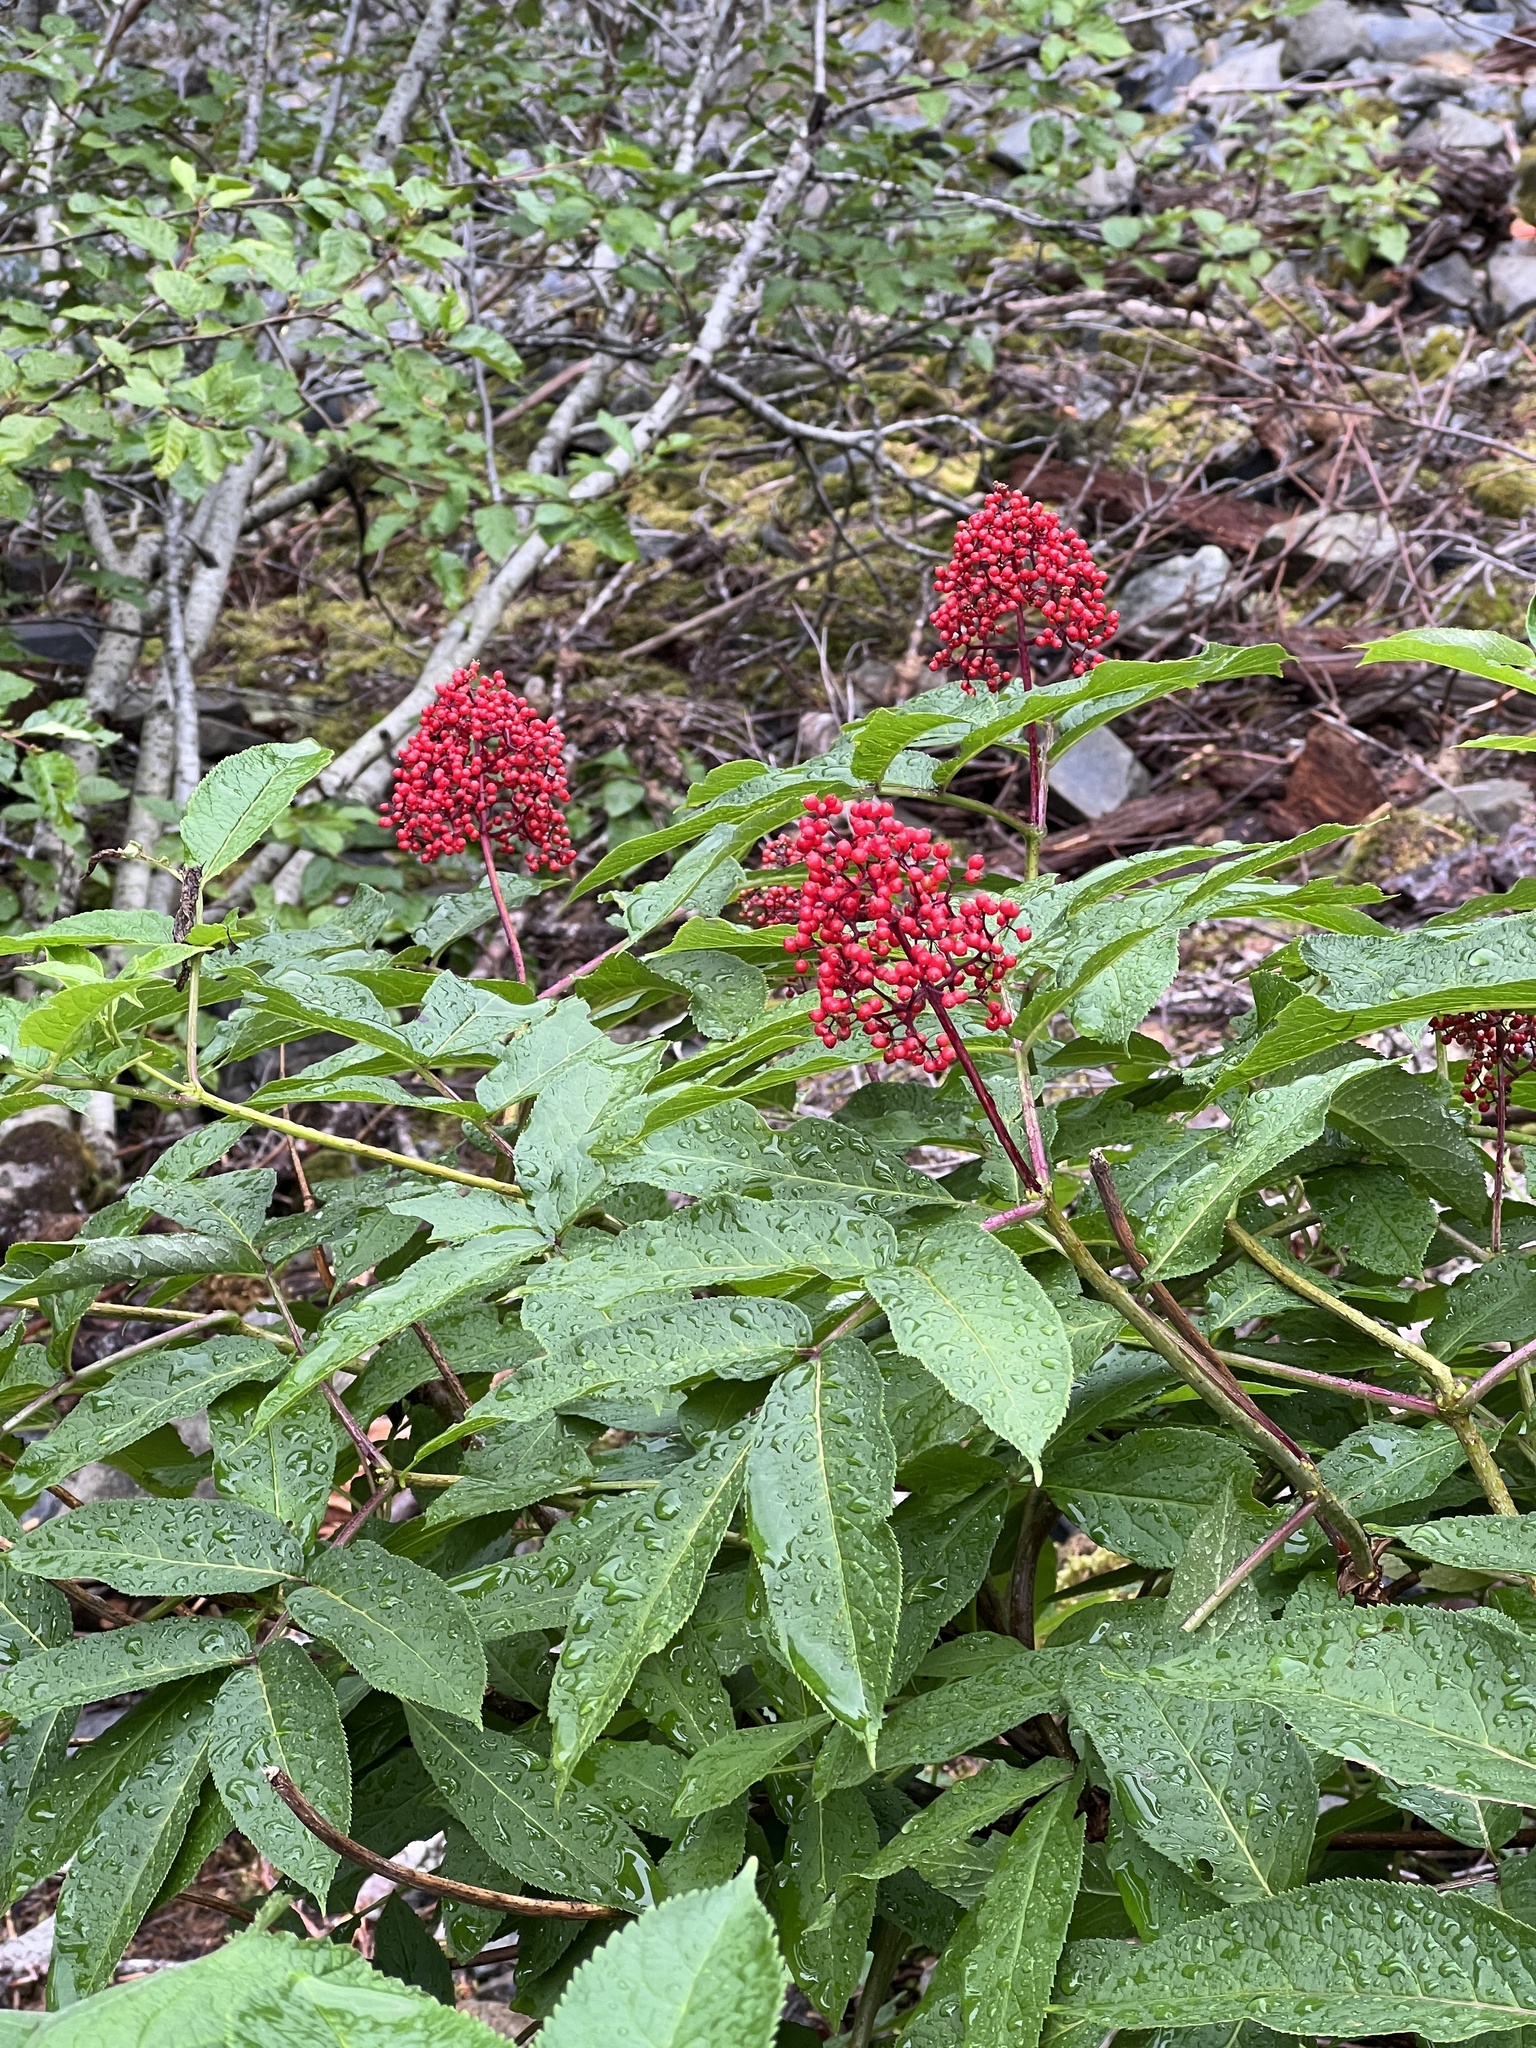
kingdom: Plantae
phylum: Tracheophyta
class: Magnoliopsida
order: Dipsacales
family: Viburnaceae
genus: Sambucus
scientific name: Sambucus racemosa
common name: Red-berried elder
